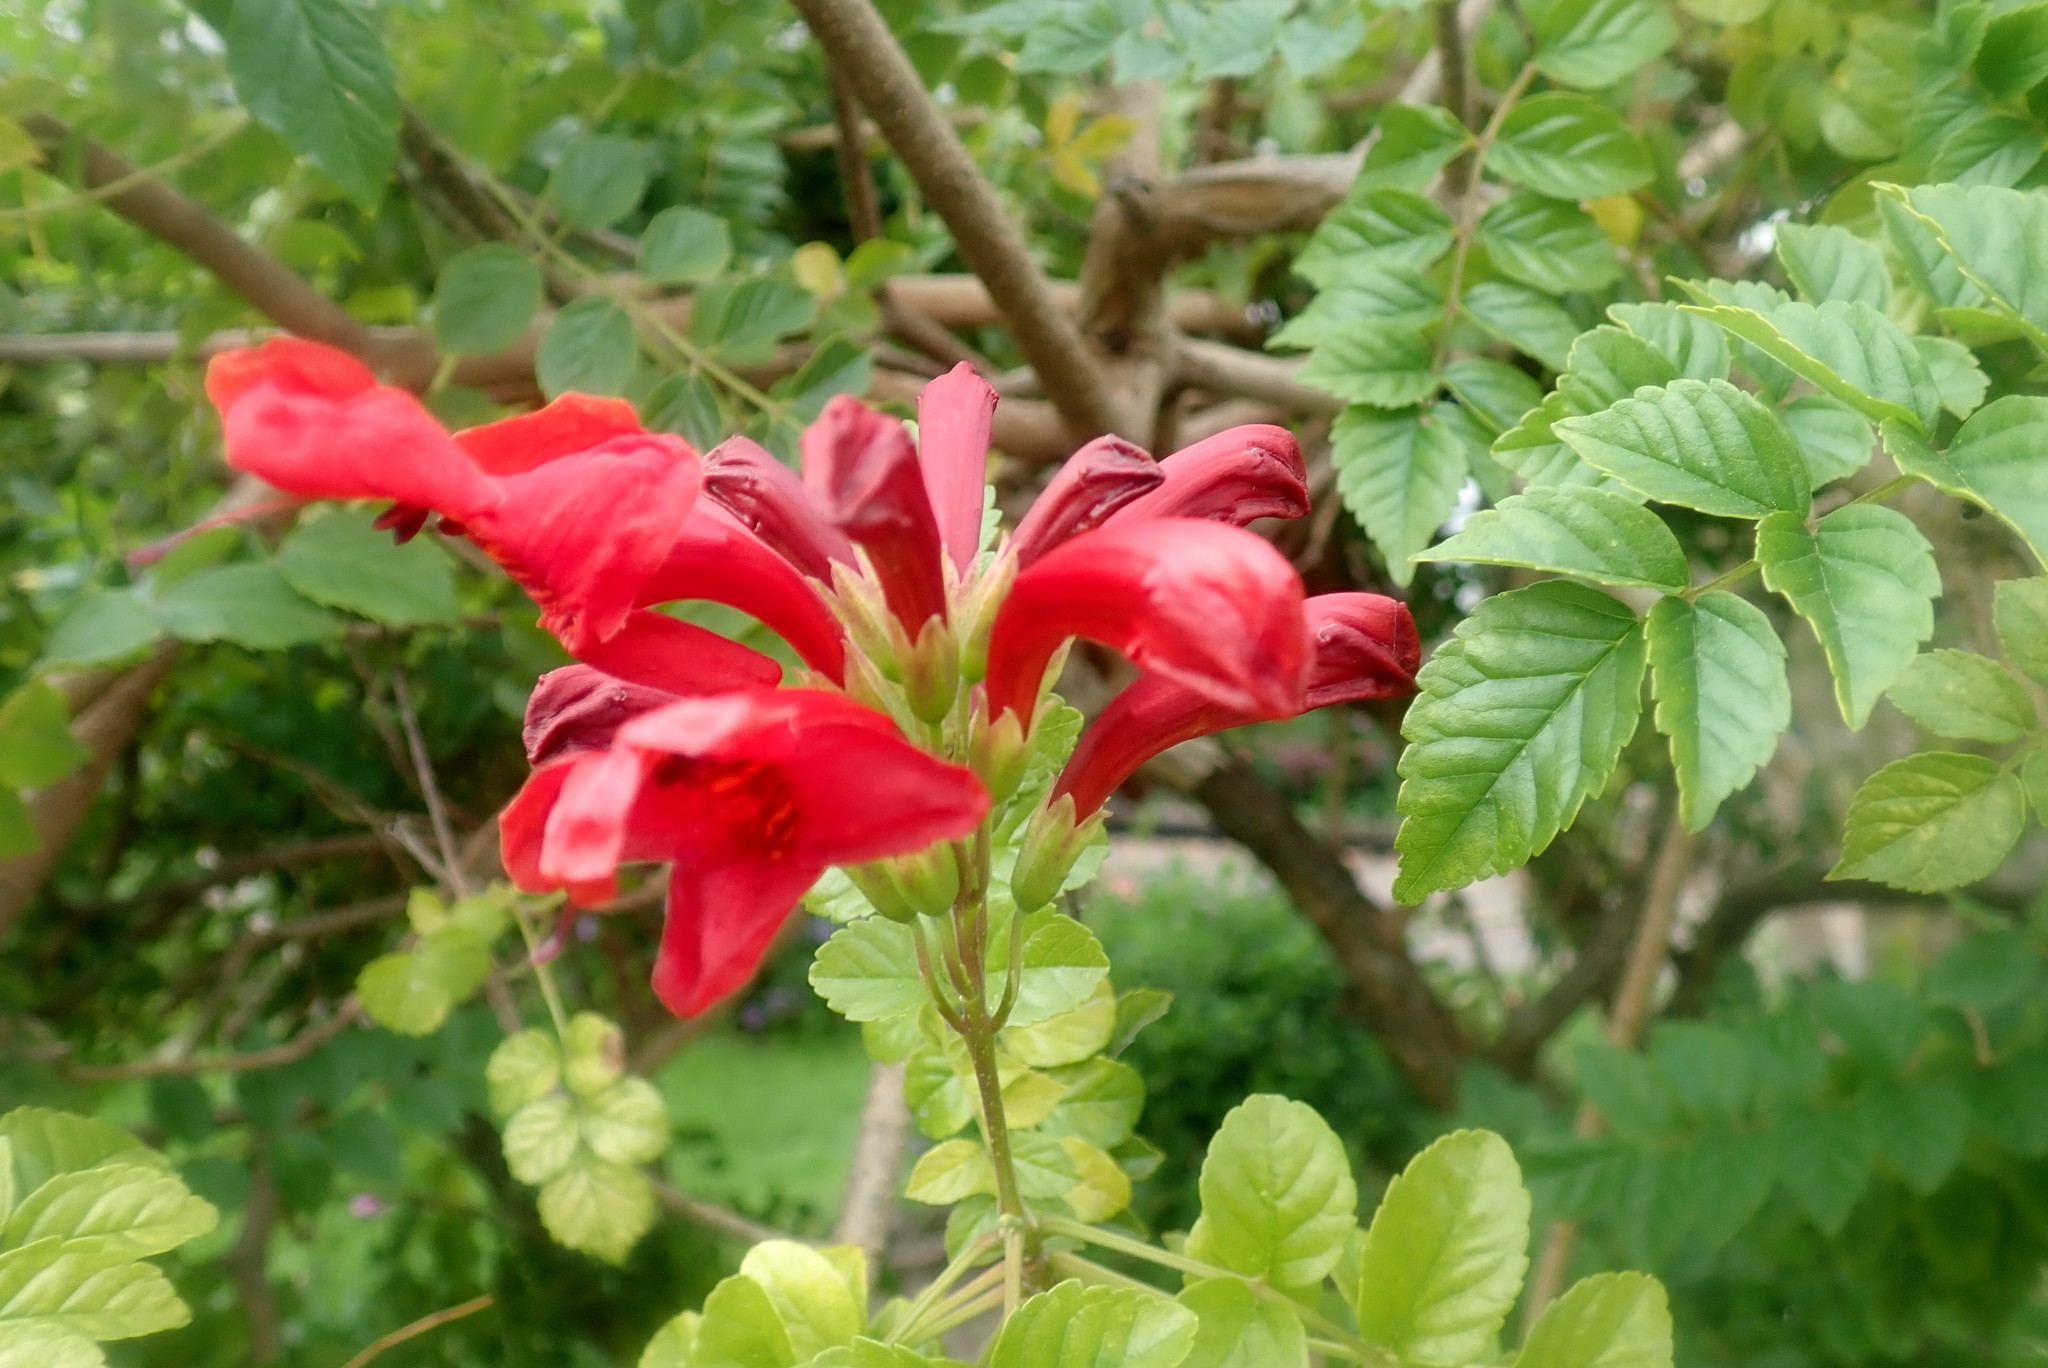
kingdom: Plantae
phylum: Tracheophyta
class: Magnoliopsida
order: Lamiales
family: Bignoniaceae
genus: Tecomaria
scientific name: Tecomaria capensis
